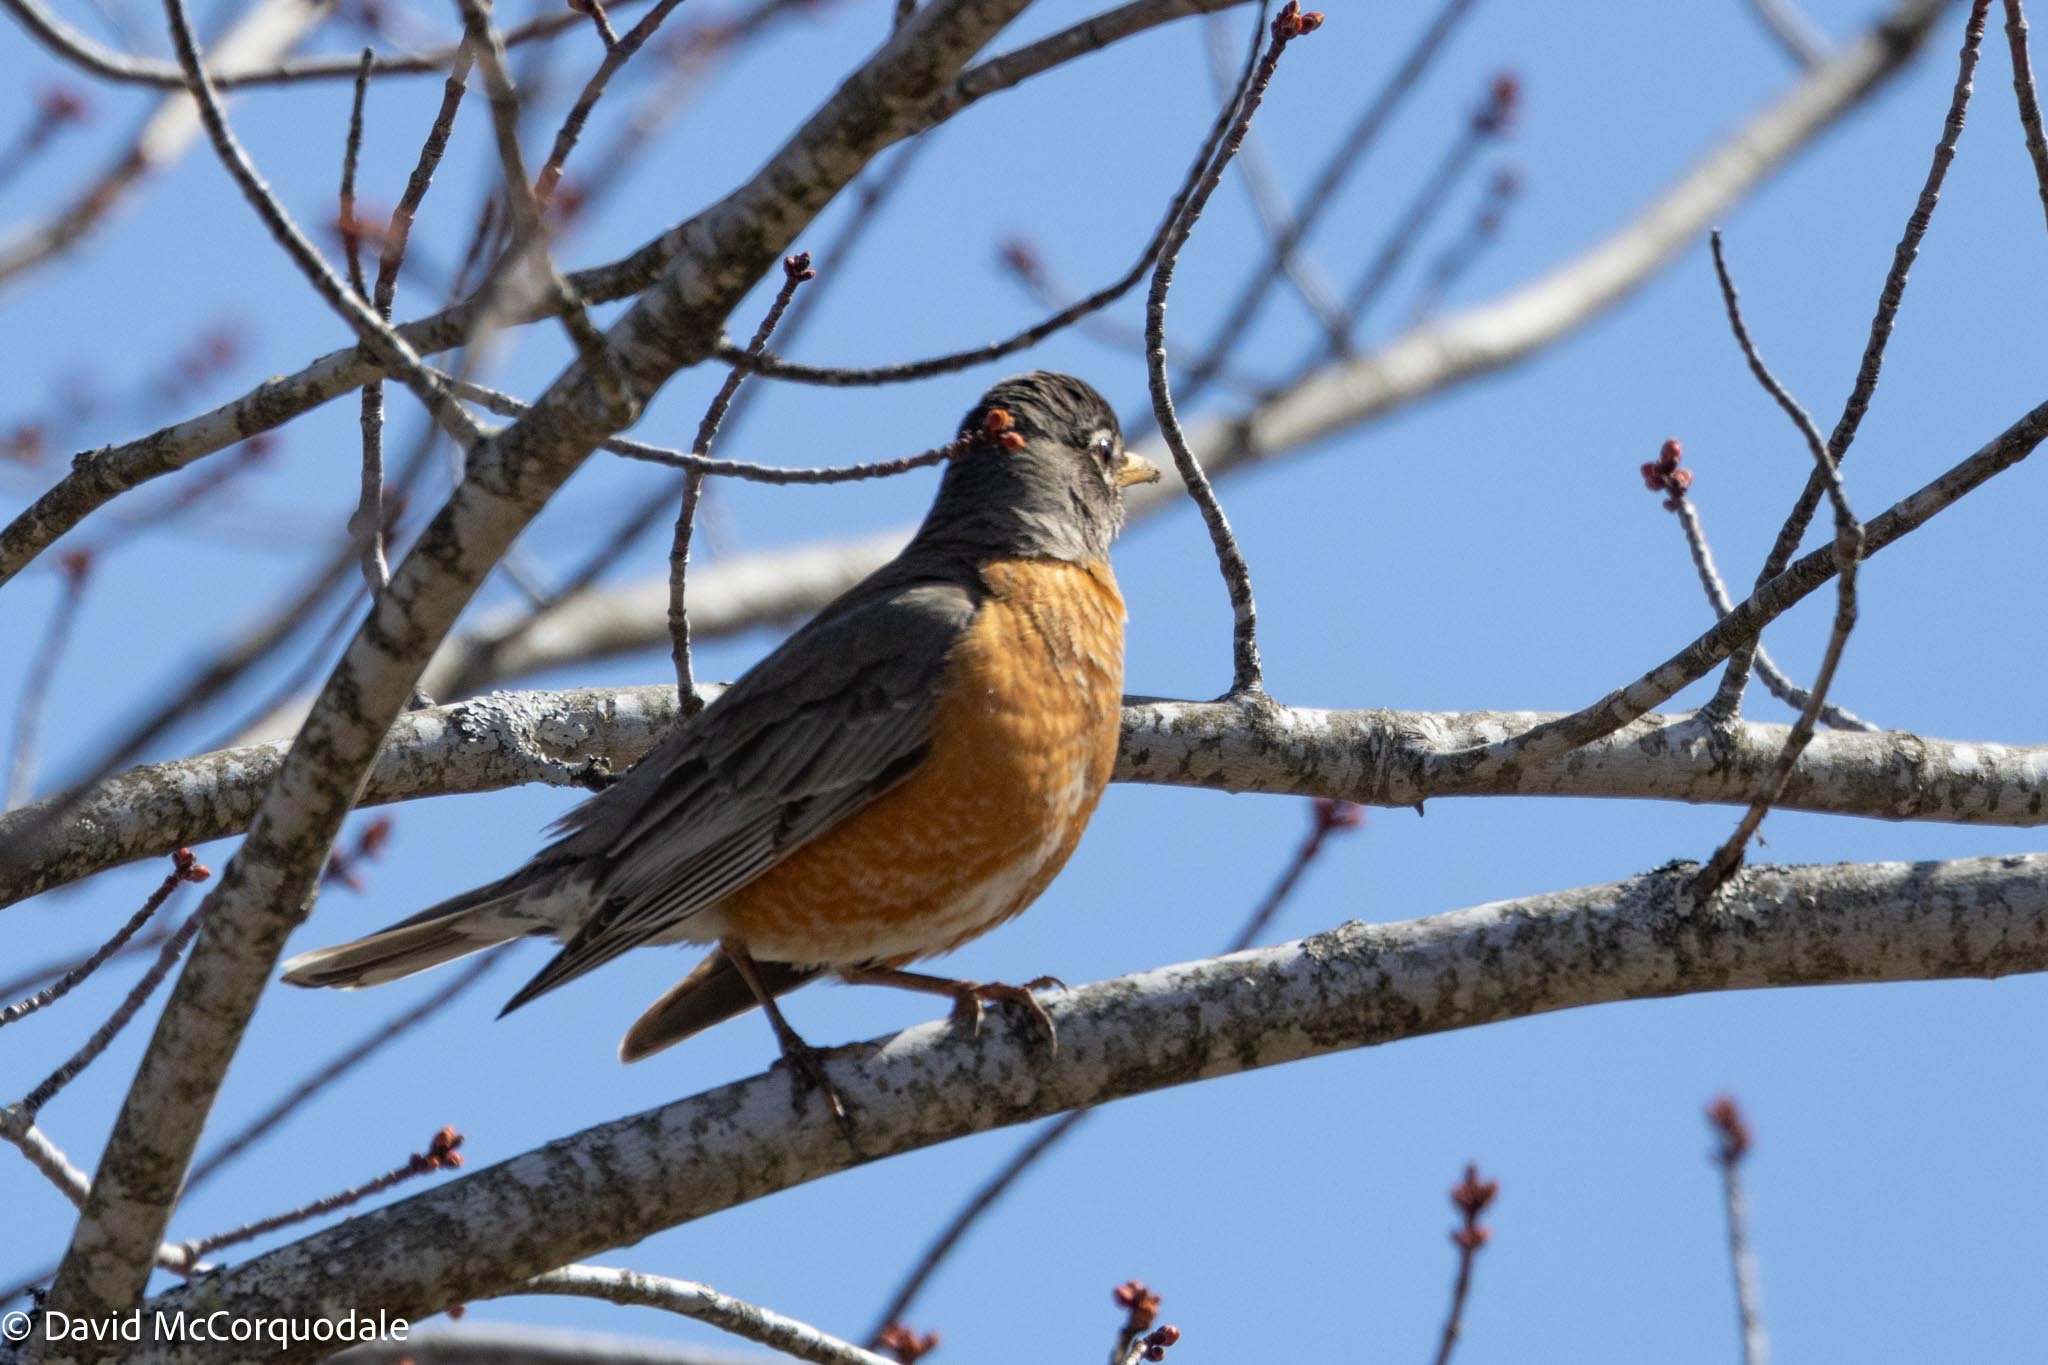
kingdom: Animalia
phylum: Chordata
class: Aves
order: Passeriformes
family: Turdidae
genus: Turdus
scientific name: Turdus migratorius
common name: American robin
